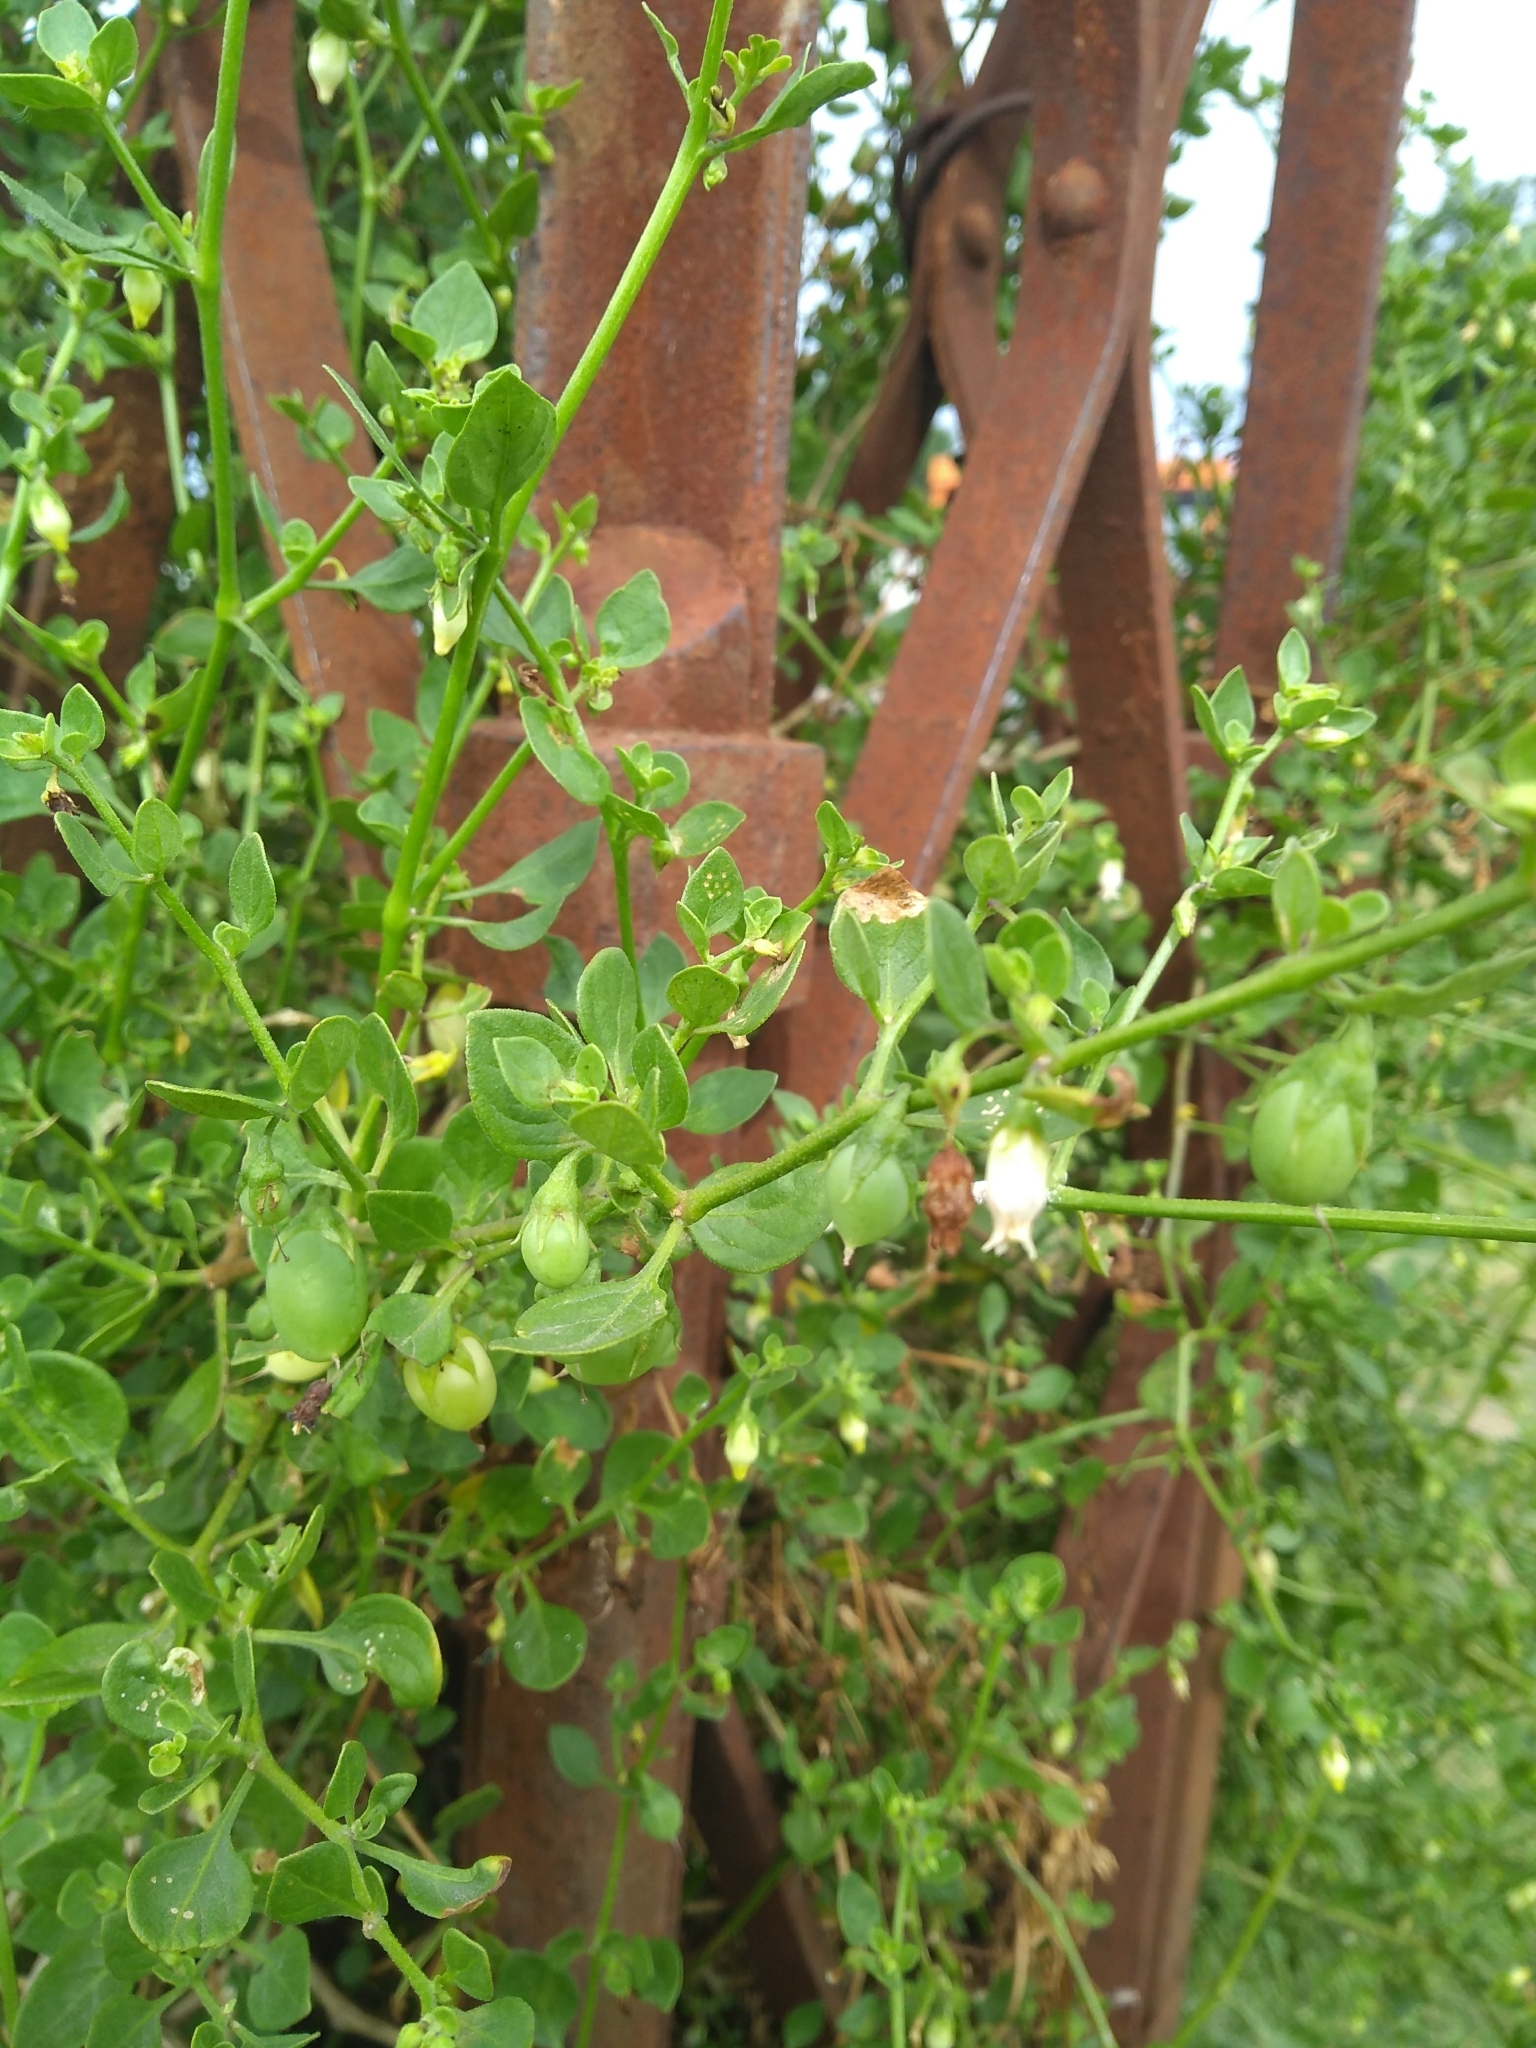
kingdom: Plantae
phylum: Tracheophyta
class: Magnoliopsida
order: Solanales
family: Solanaceae
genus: Salpichroa
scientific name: Salpichroa origanifolia
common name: Lily-of-the-valley-vine
